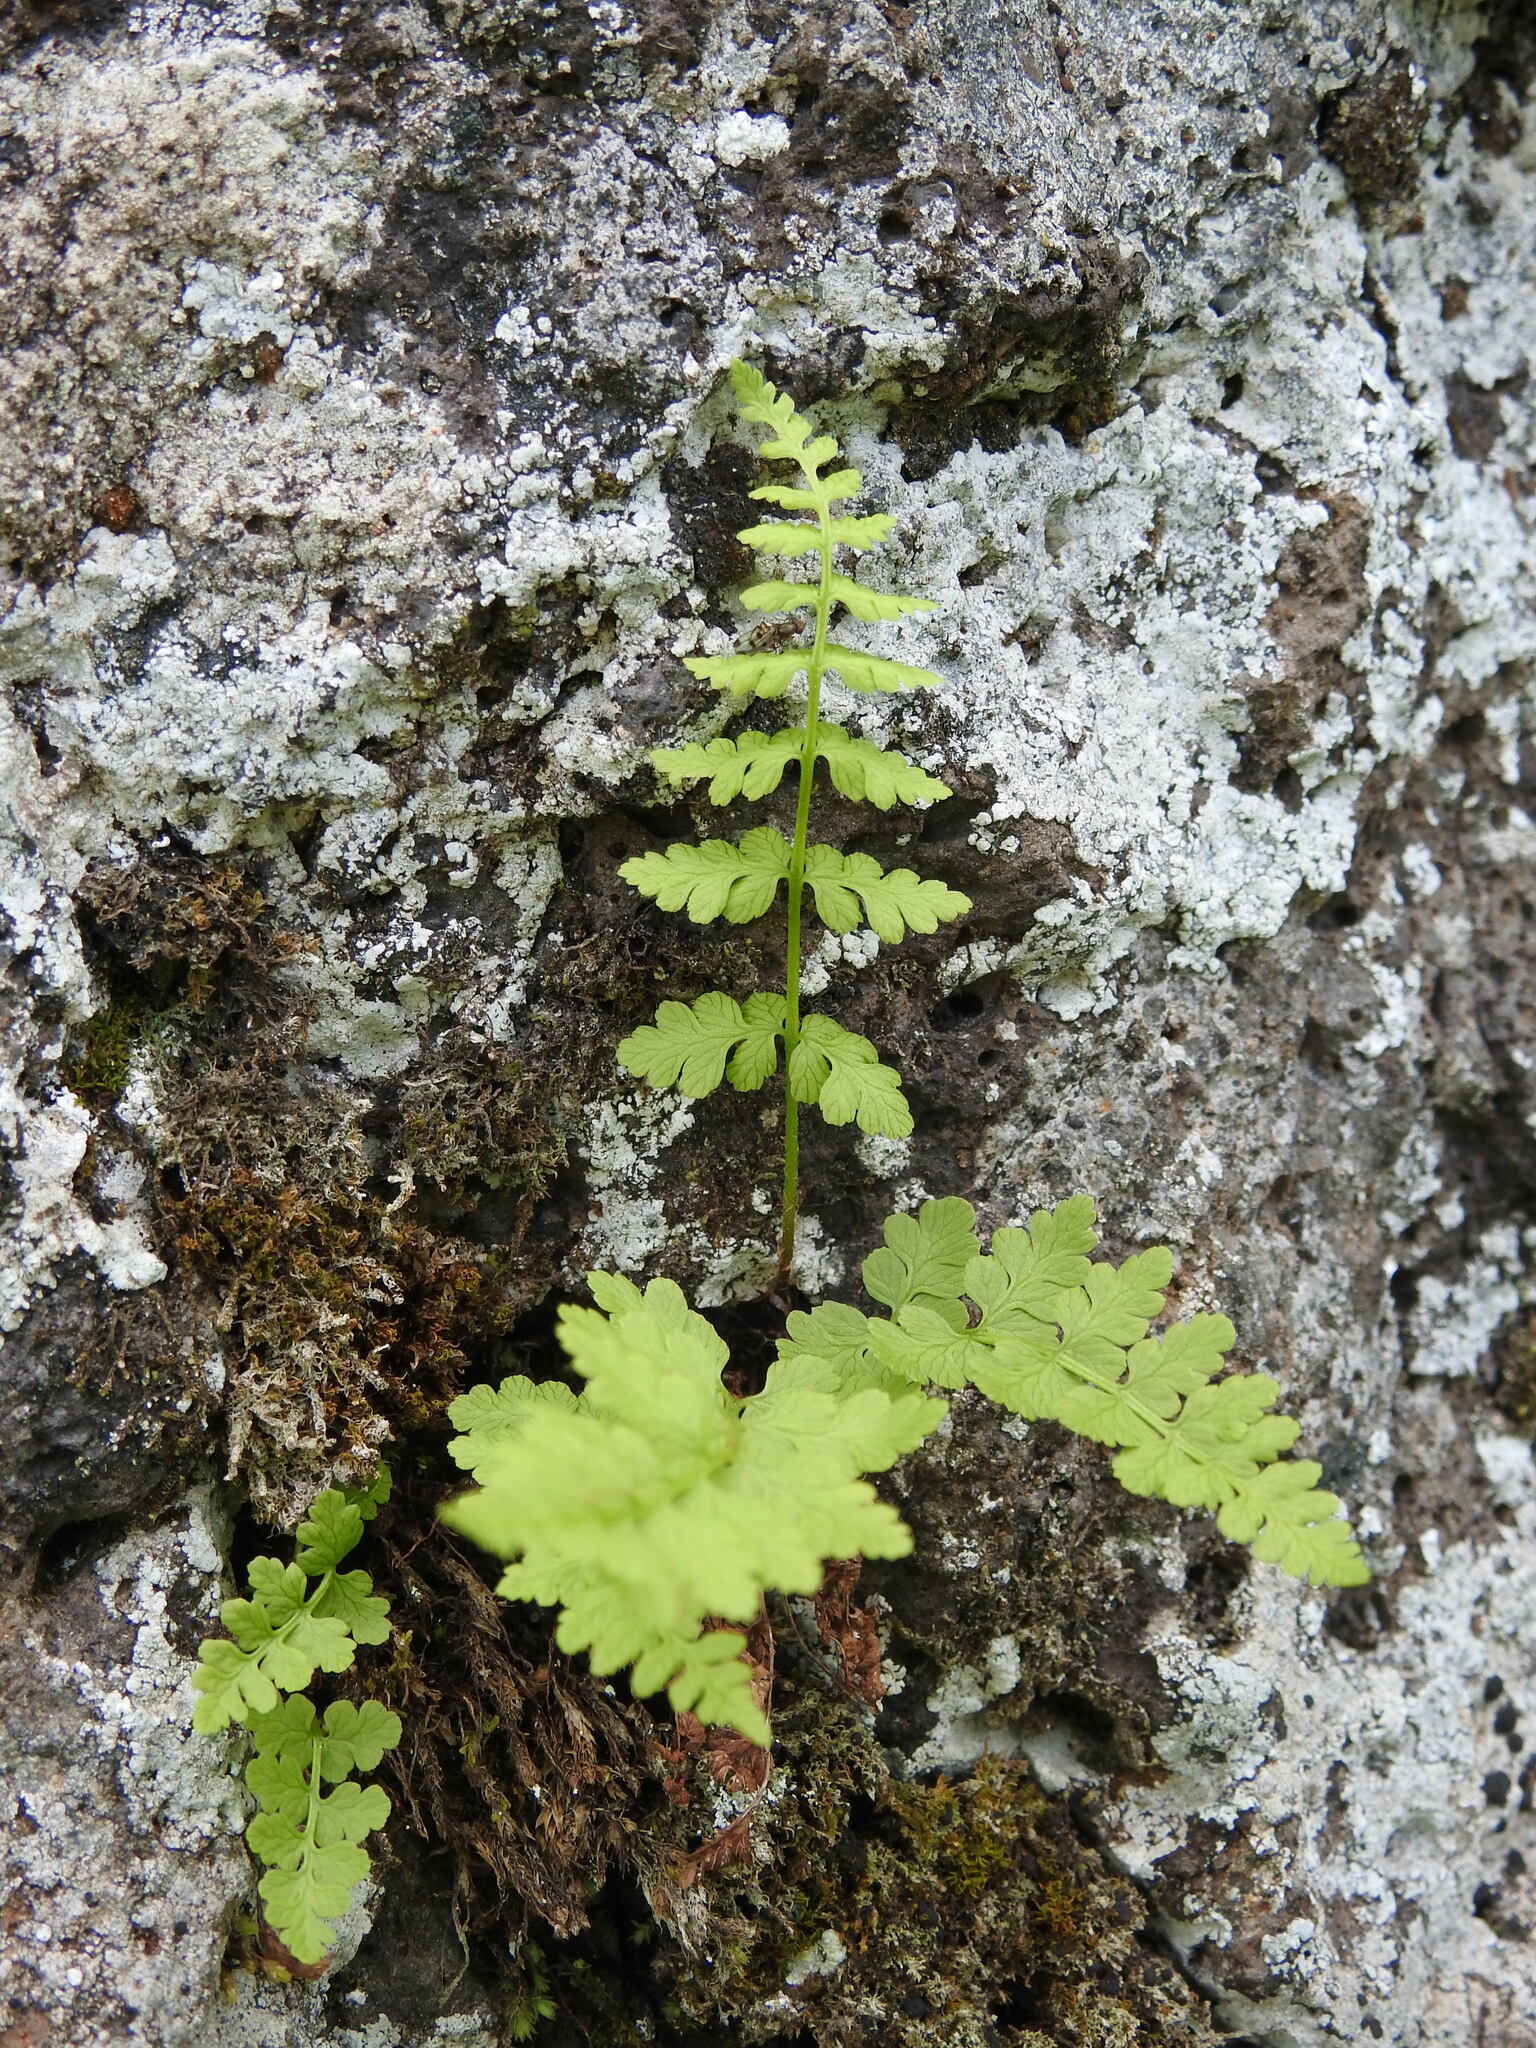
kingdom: Plantae
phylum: Tracheophyta
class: Polypodiopsida
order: Polypodiales
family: Cystopteridaceae
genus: Cystopteris
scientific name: Cystopteris fragilis
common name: Brittle bladder fern
